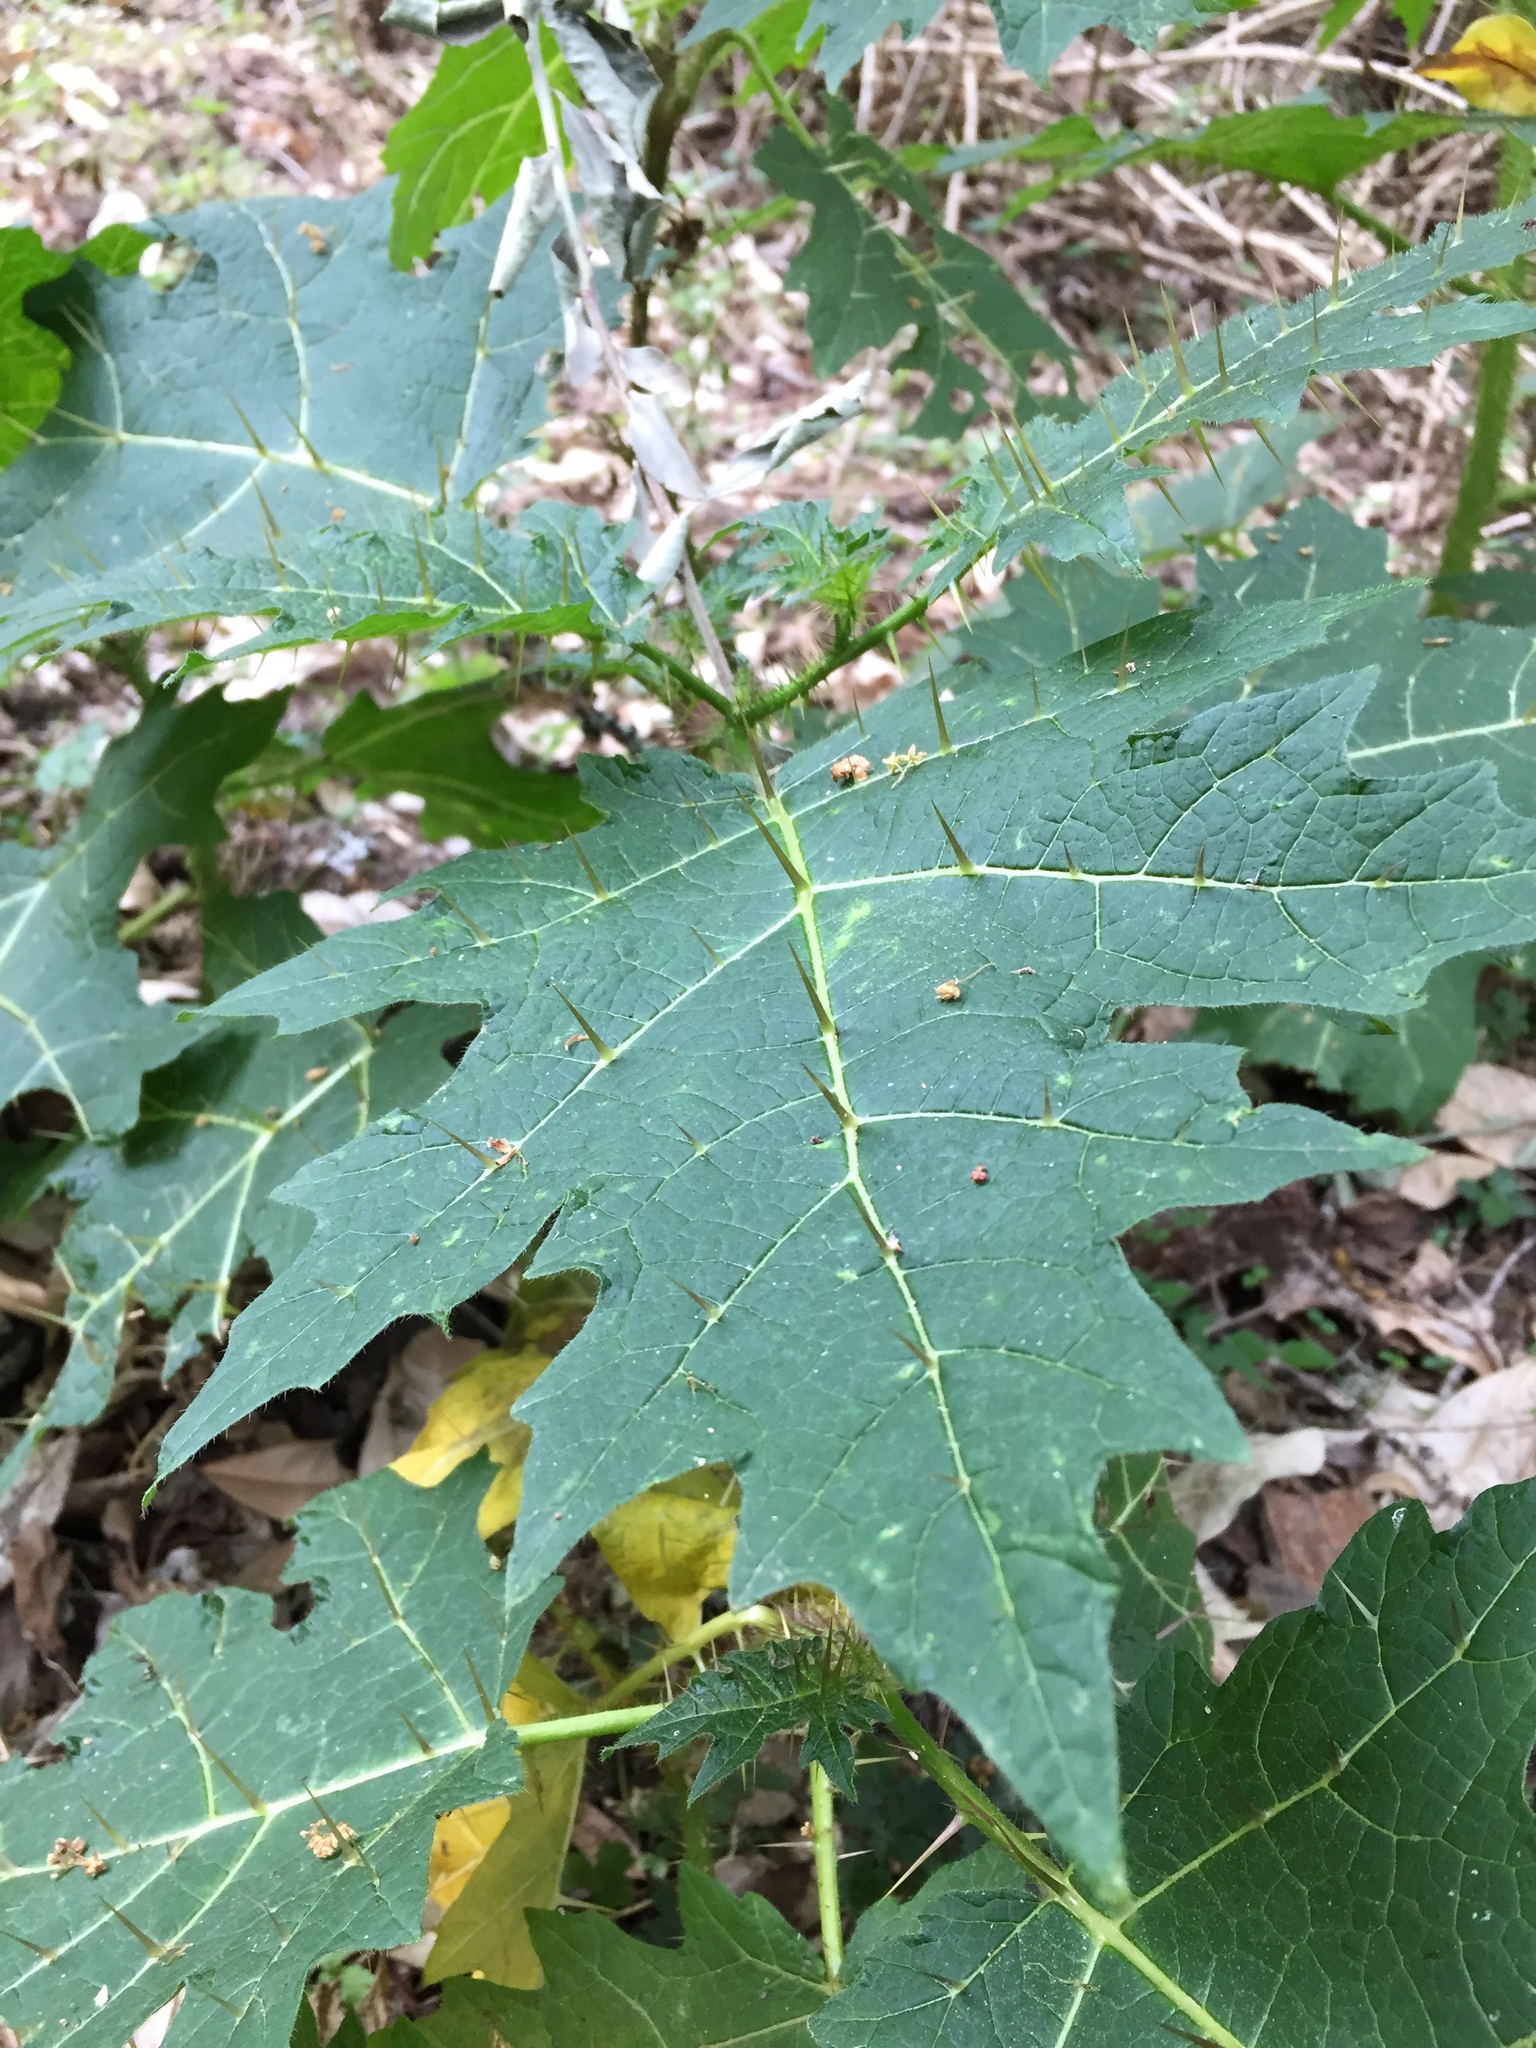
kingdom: Plantae
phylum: Tracheophyta
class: Magnoliopsida
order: Solanales
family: Solanaceae
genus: Solanum
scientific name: Solanum aculeatissimum
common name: Dutch eggplant
